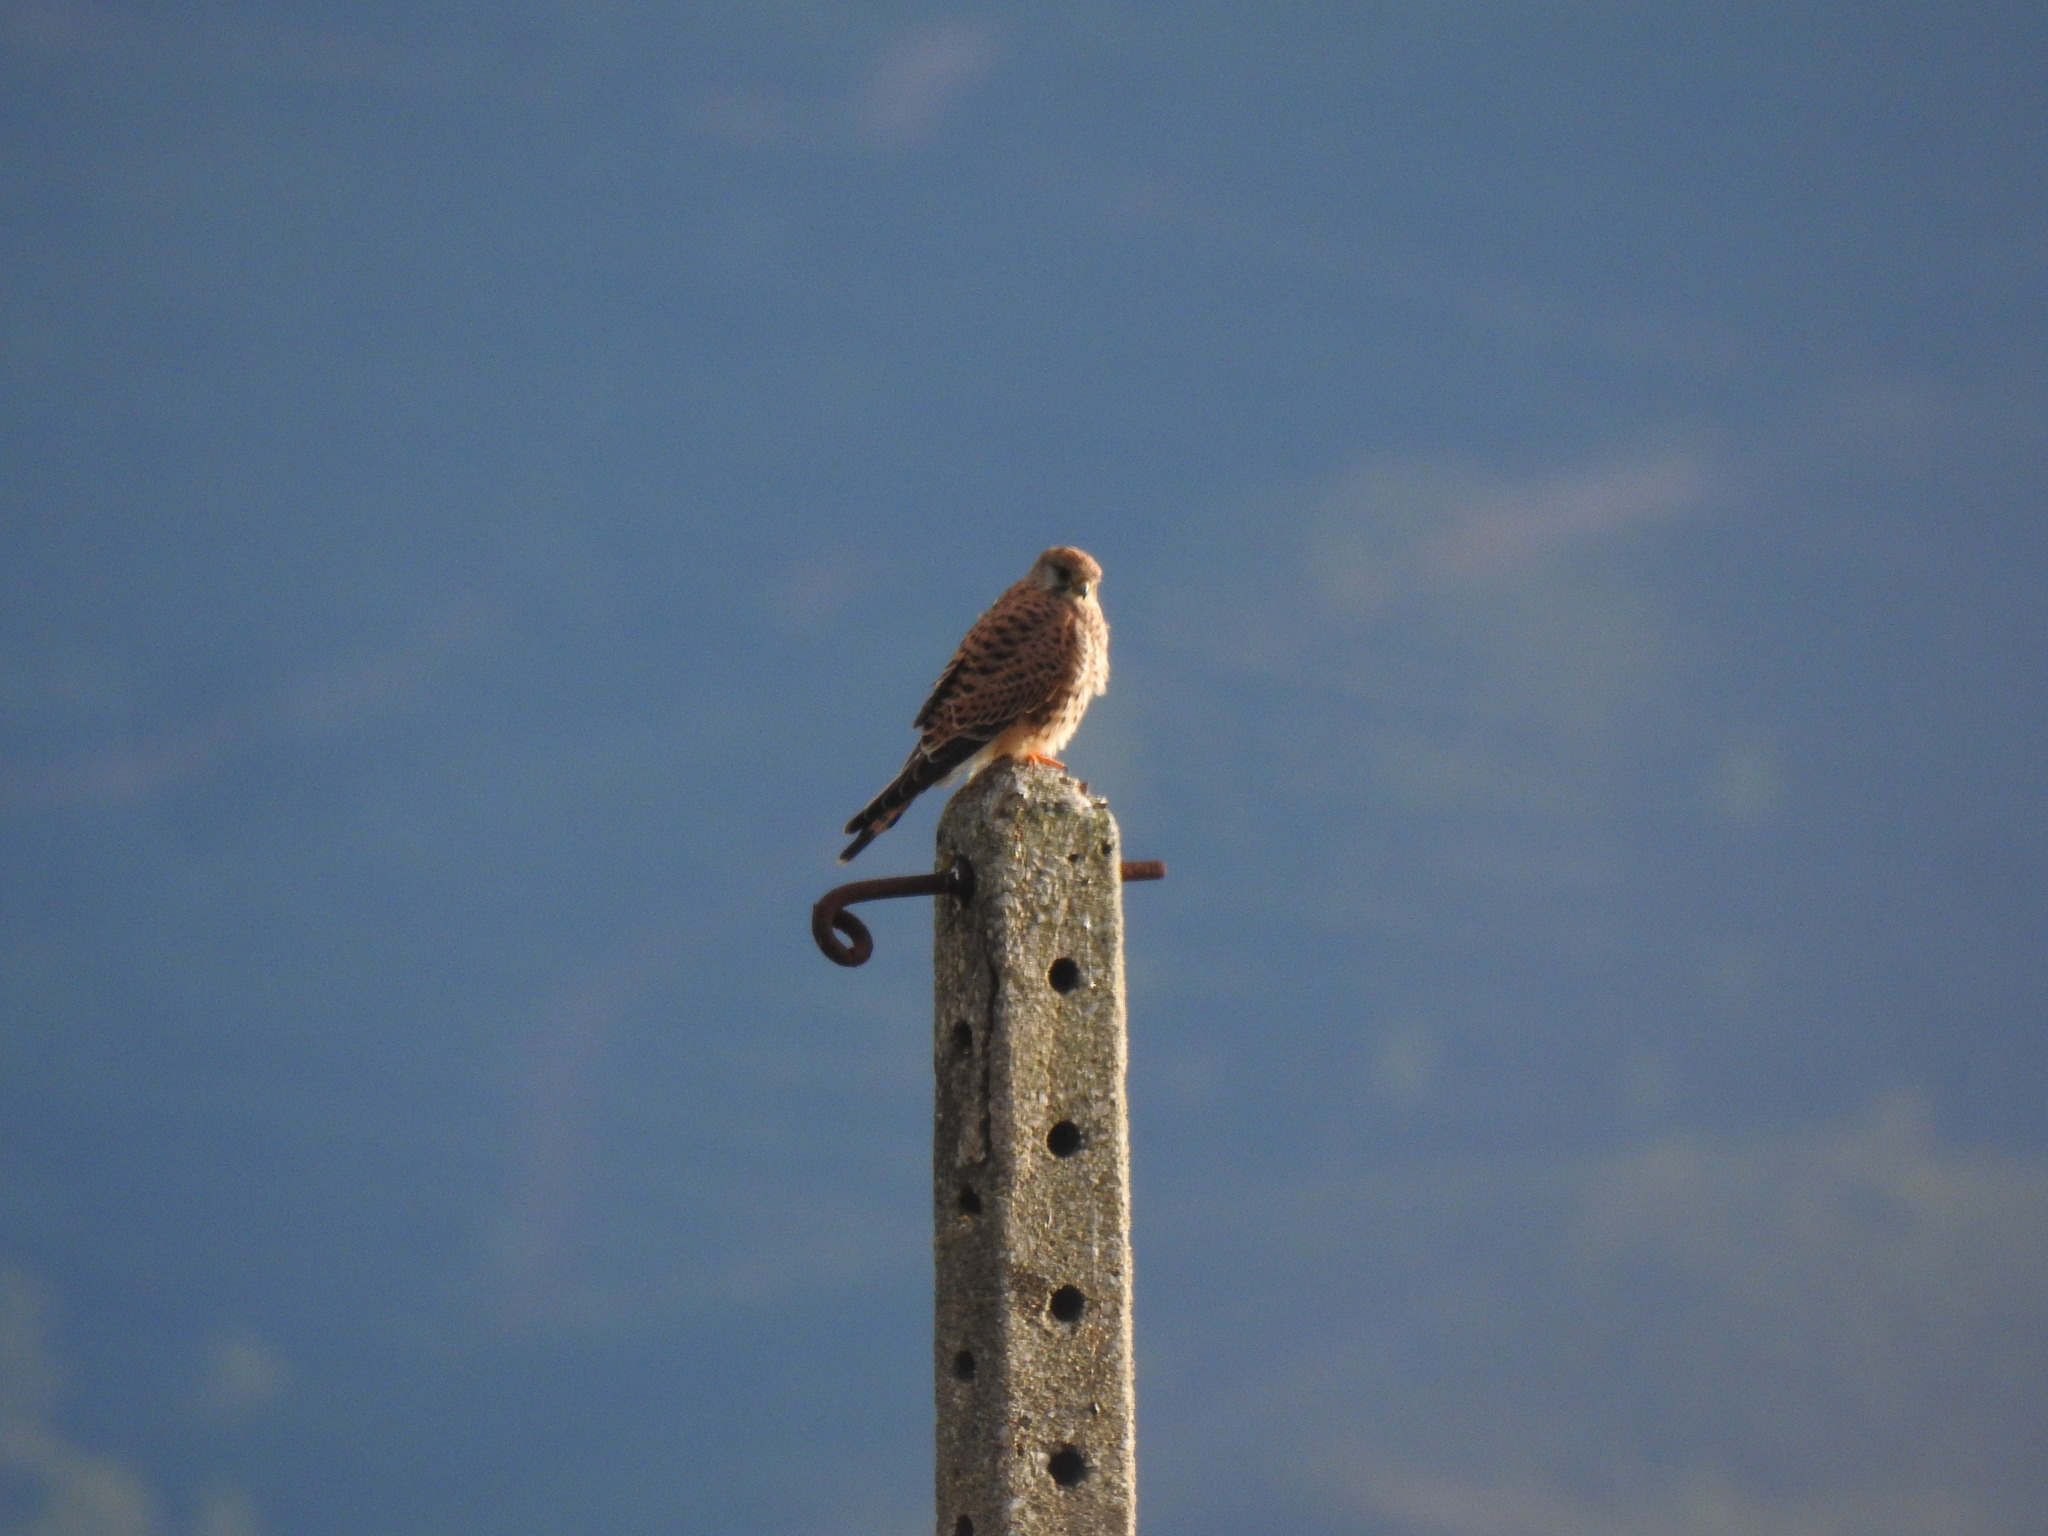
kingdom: Animalia
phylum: Chordata
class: Aves
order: Falconiformes
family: Falconidae
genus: Falco
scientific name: Falco tinnunculus
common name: Common kestrel
